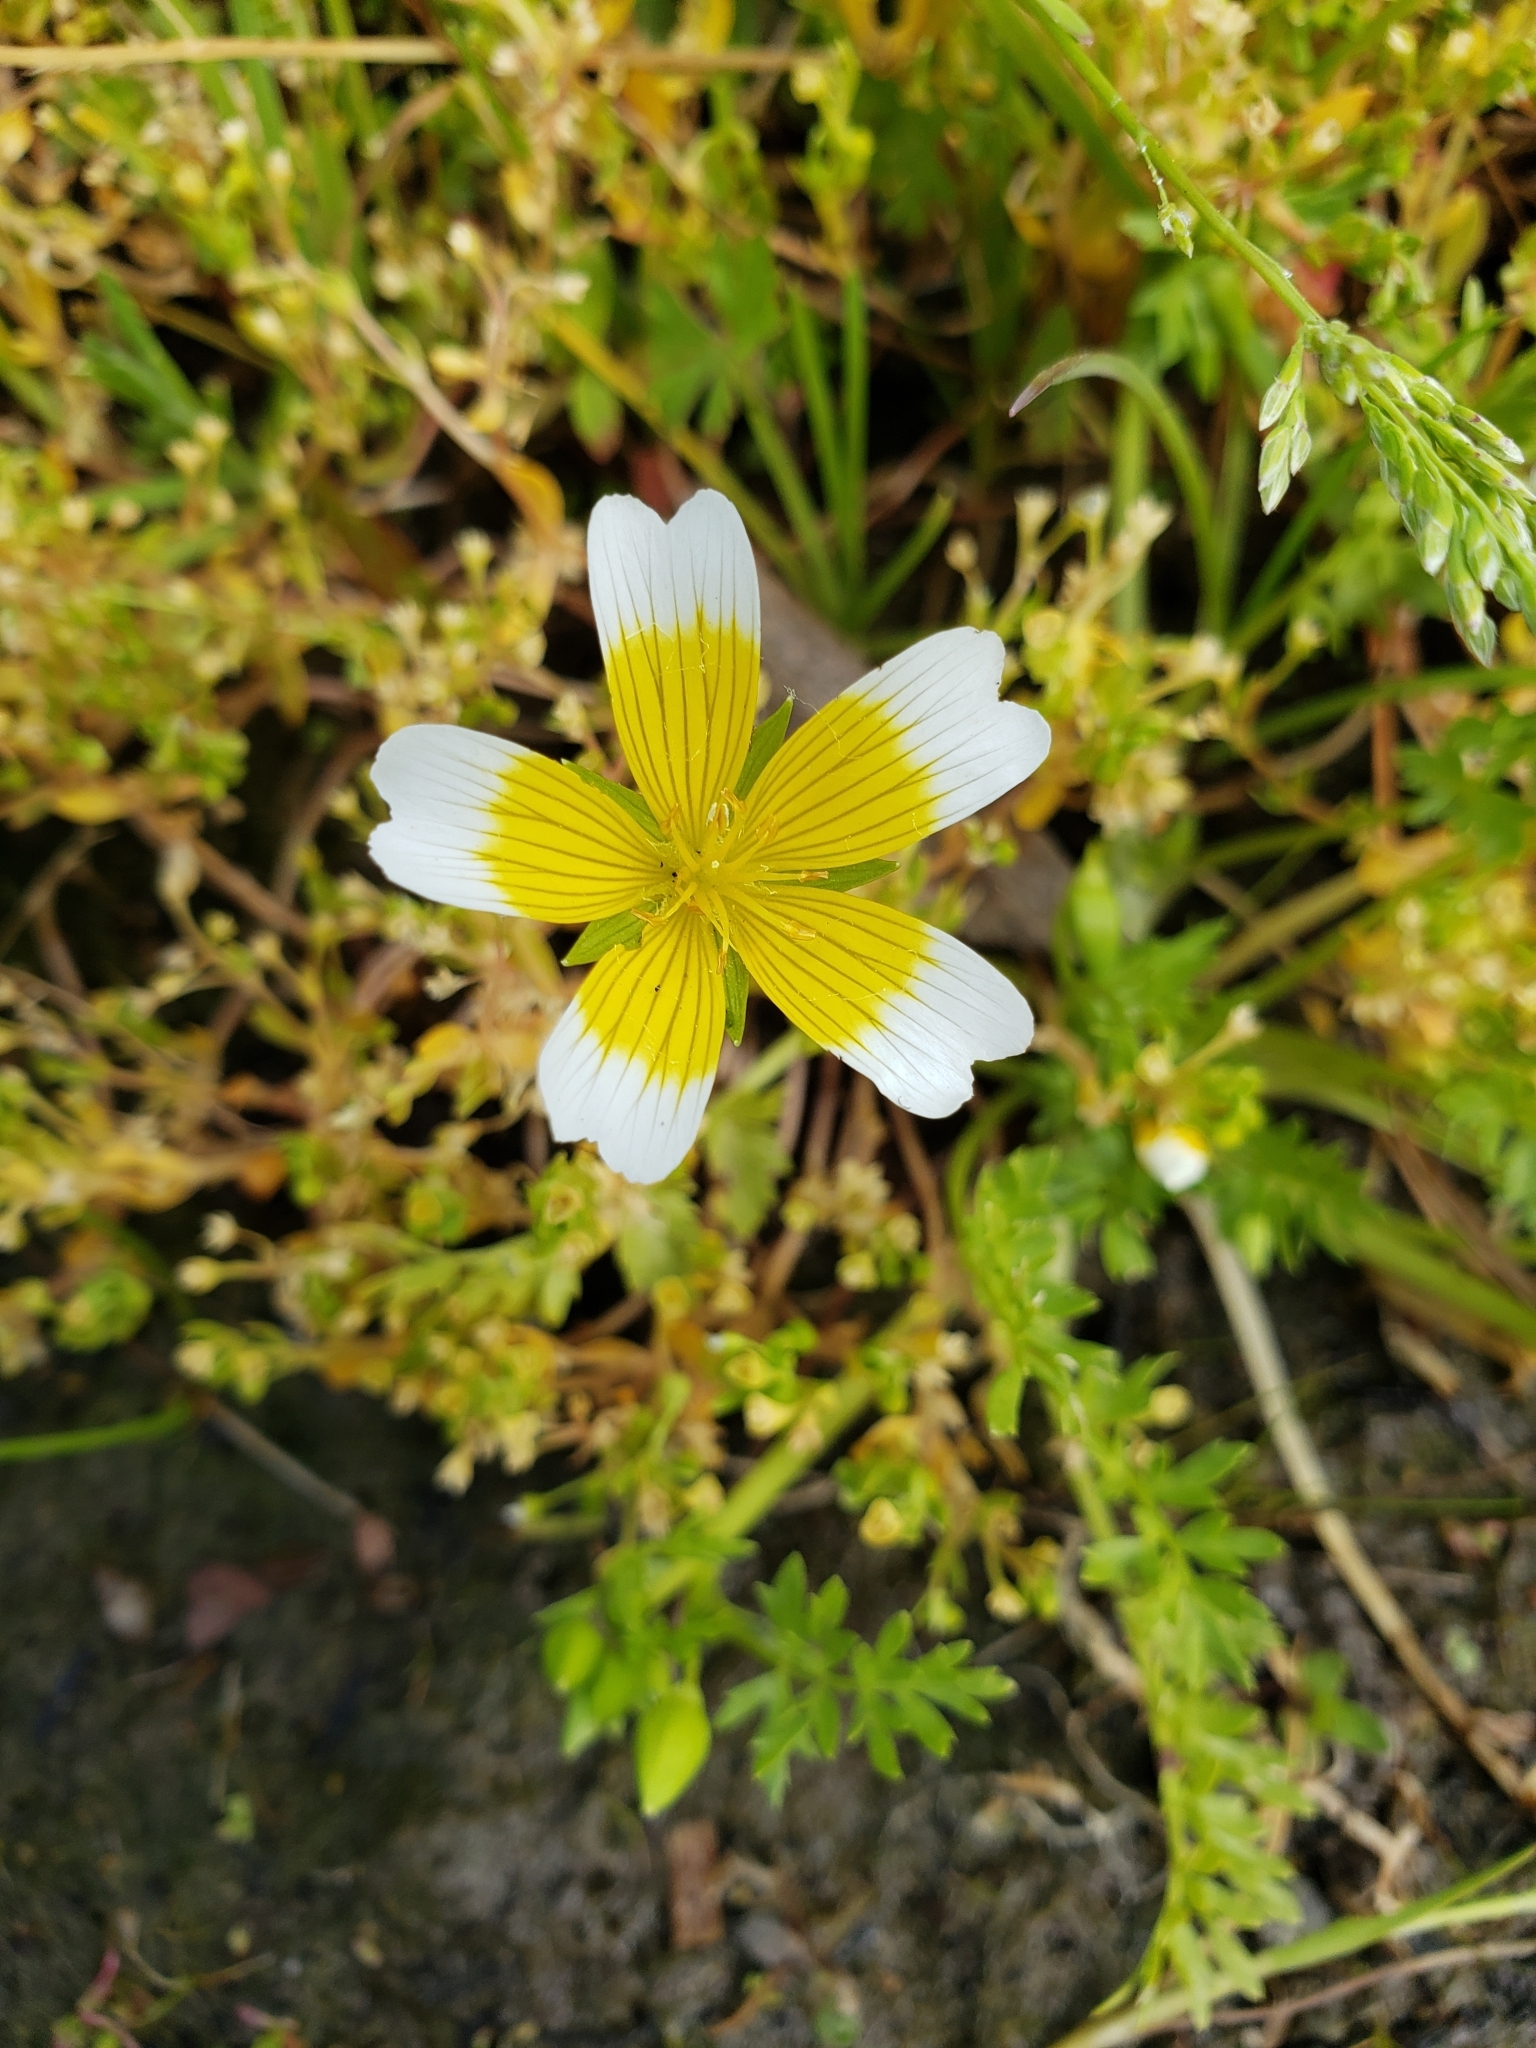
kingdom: Plantae
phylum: Tracheophyta
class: Magnoliopsida
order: Brassicales
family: Limnanthaceae
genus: Limnanthes
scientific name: Limnanthes douglasii
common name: Meadow-foam
